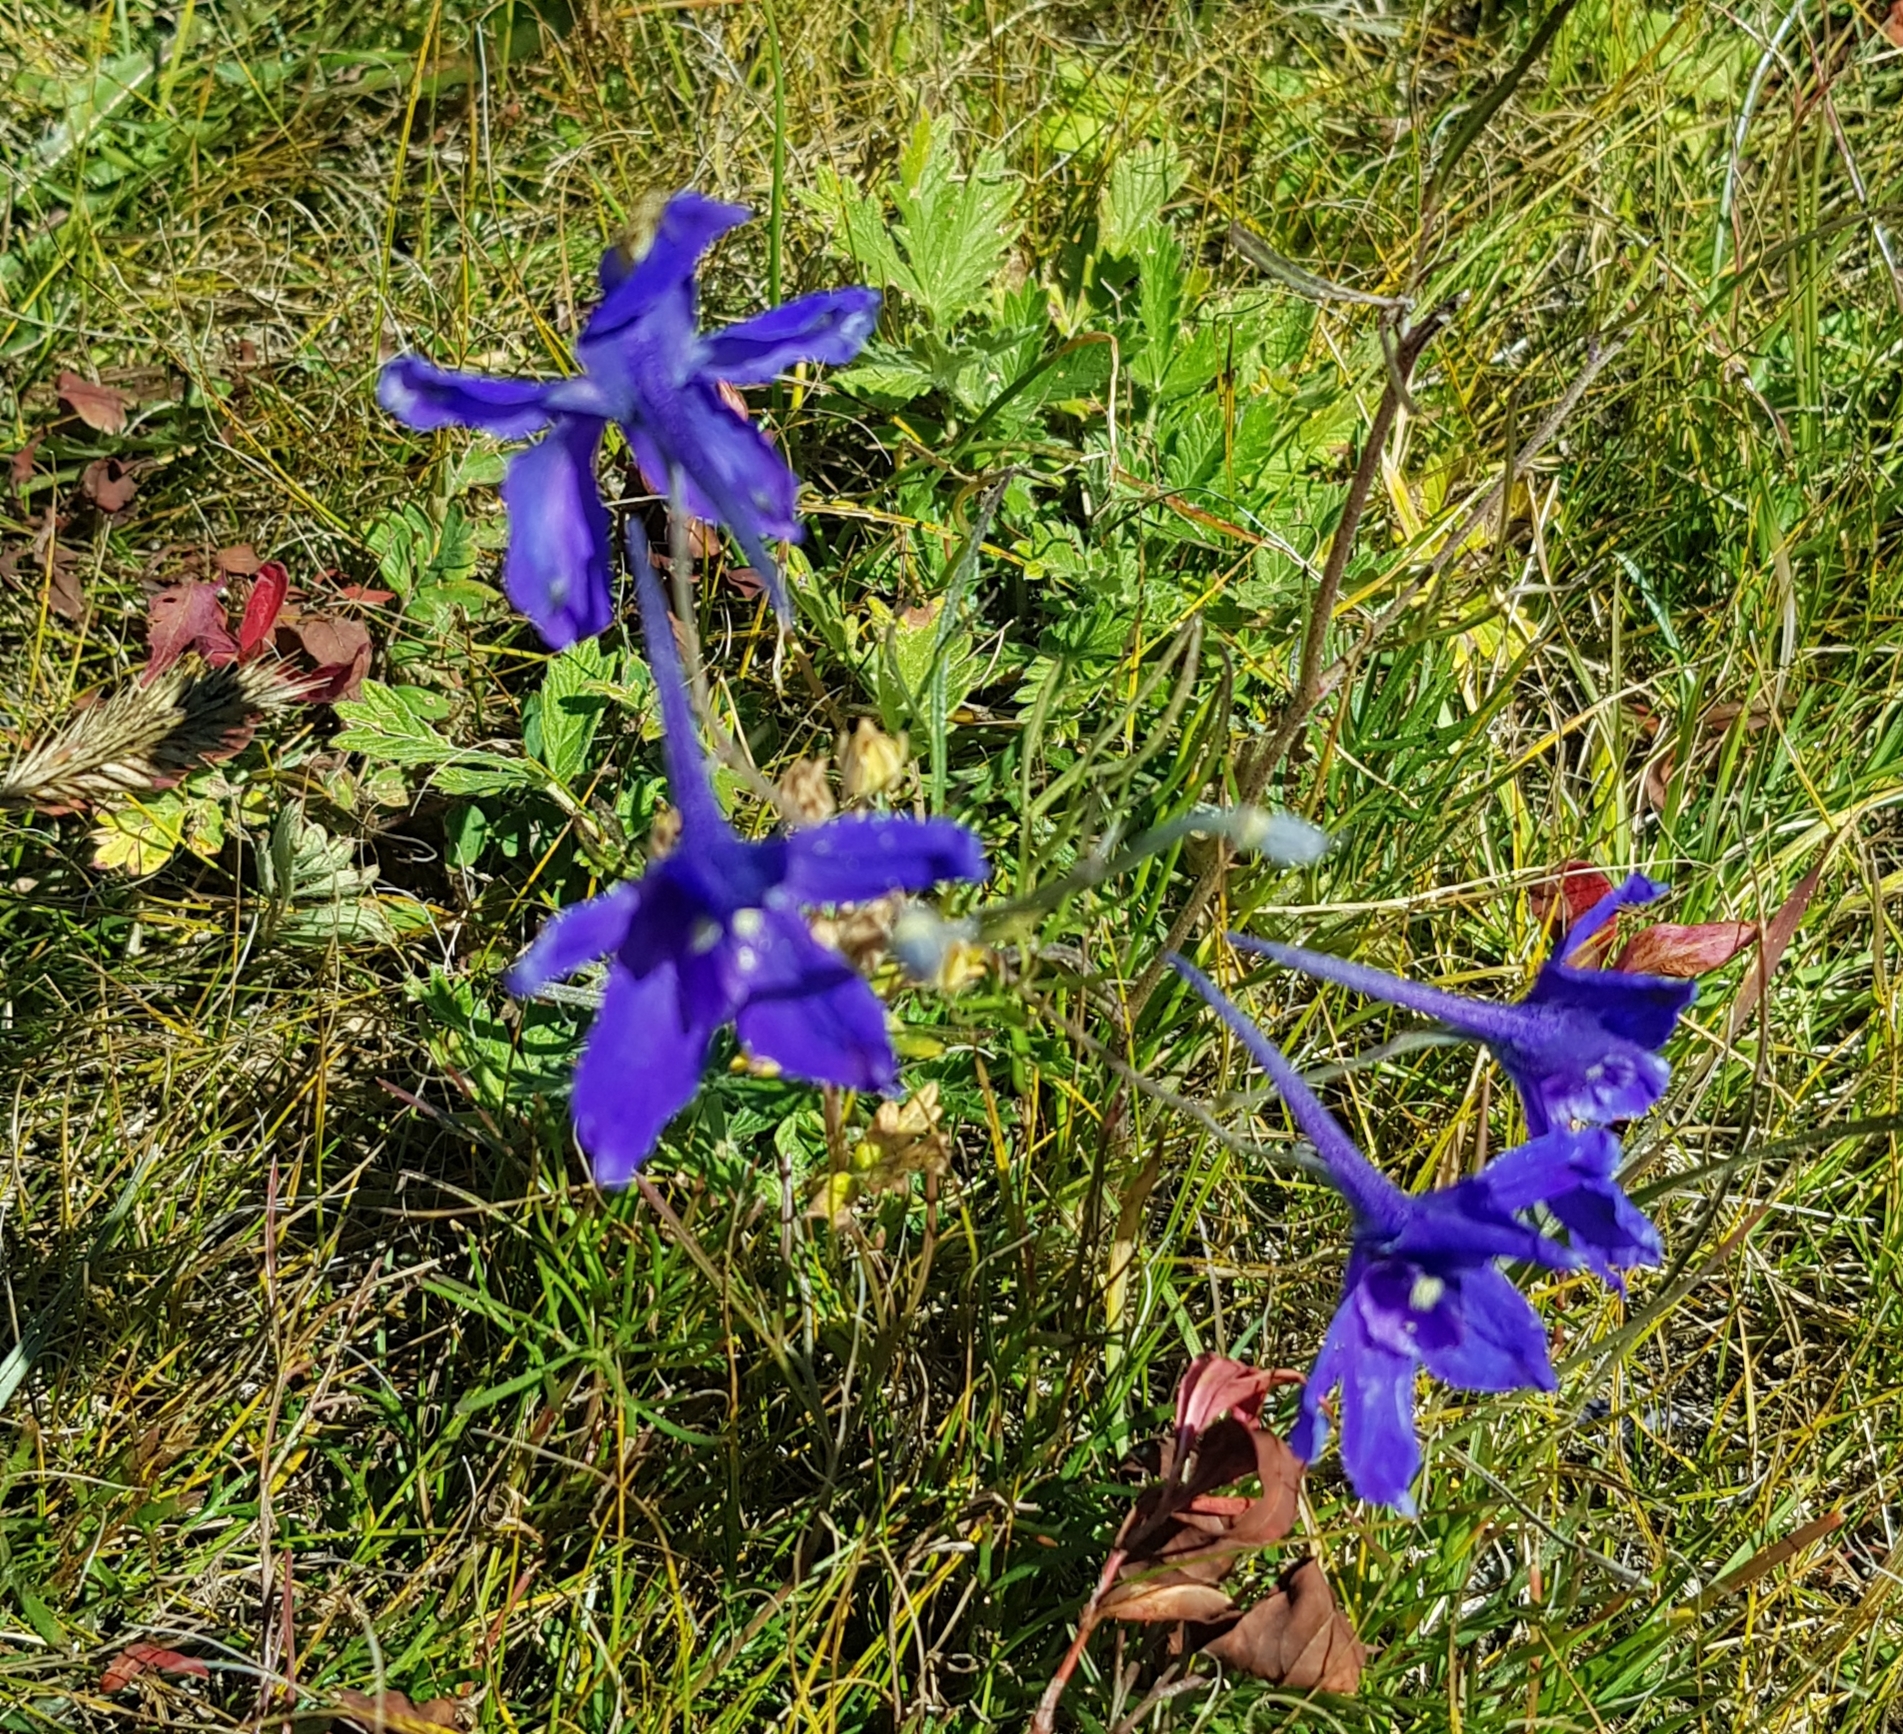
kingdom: Plantae
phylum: Tracheophyta
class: Magnoliopsida
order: Ranunculales
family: Ranunculaceae
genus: Delphinium
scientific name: Delphinium grandiflorum
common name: Siberian larkspur
